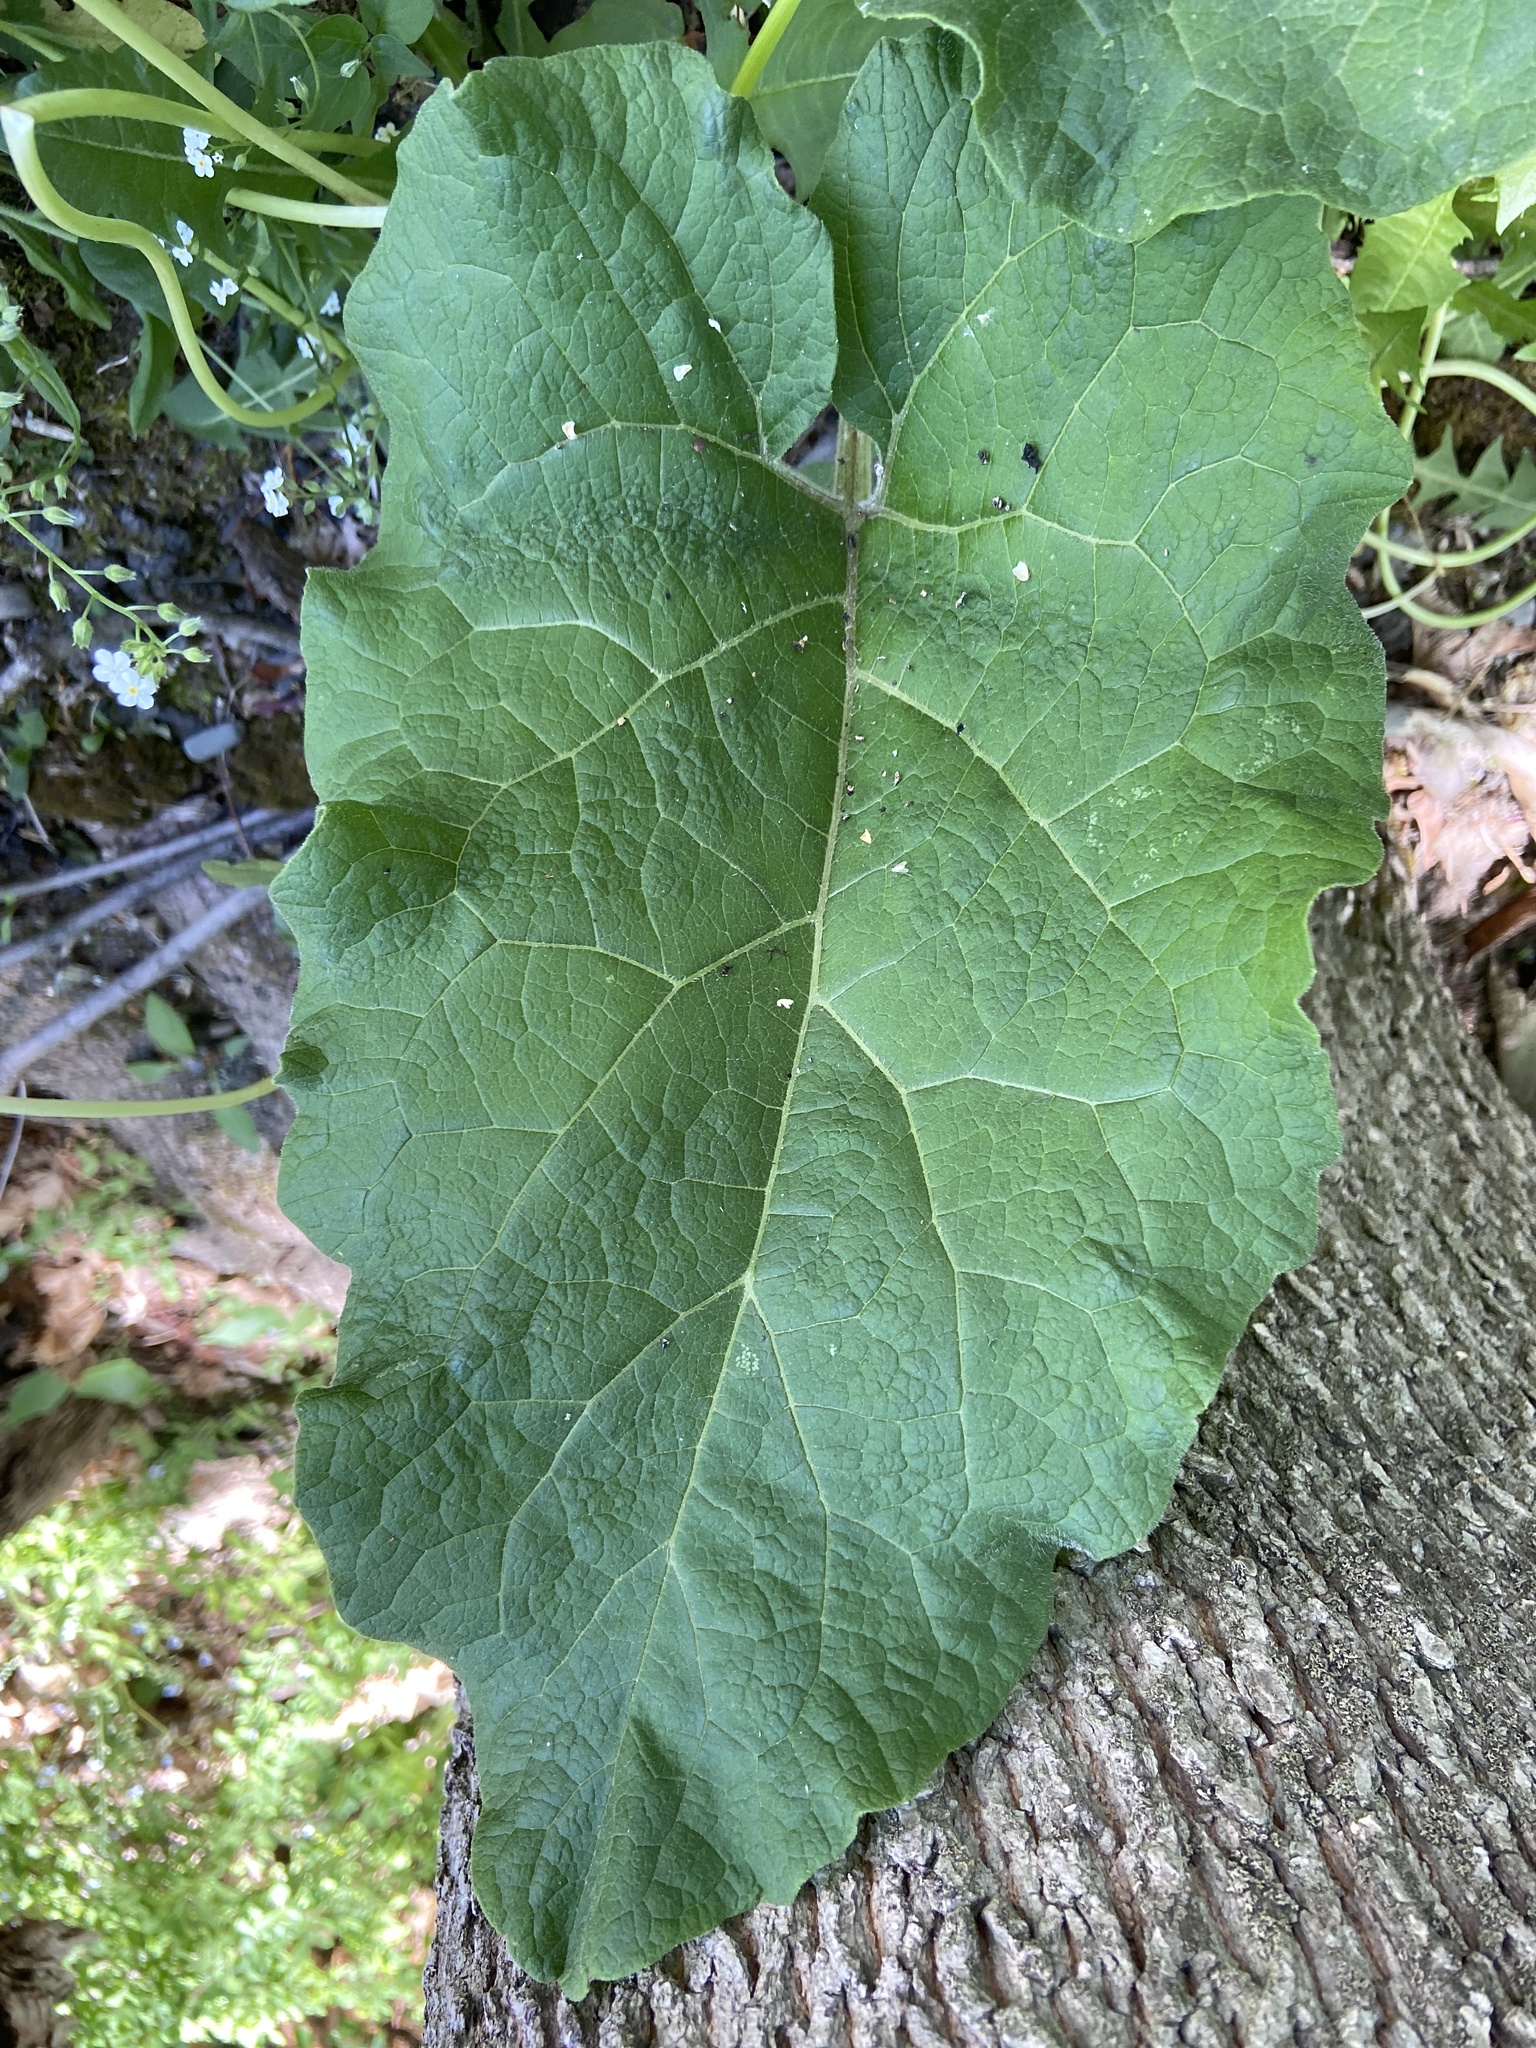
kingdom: Plantae
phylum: Tracheophyta
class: Magnoliopsida
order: Asterales
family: Asteraceae
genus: Arctium
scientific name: Arctium
